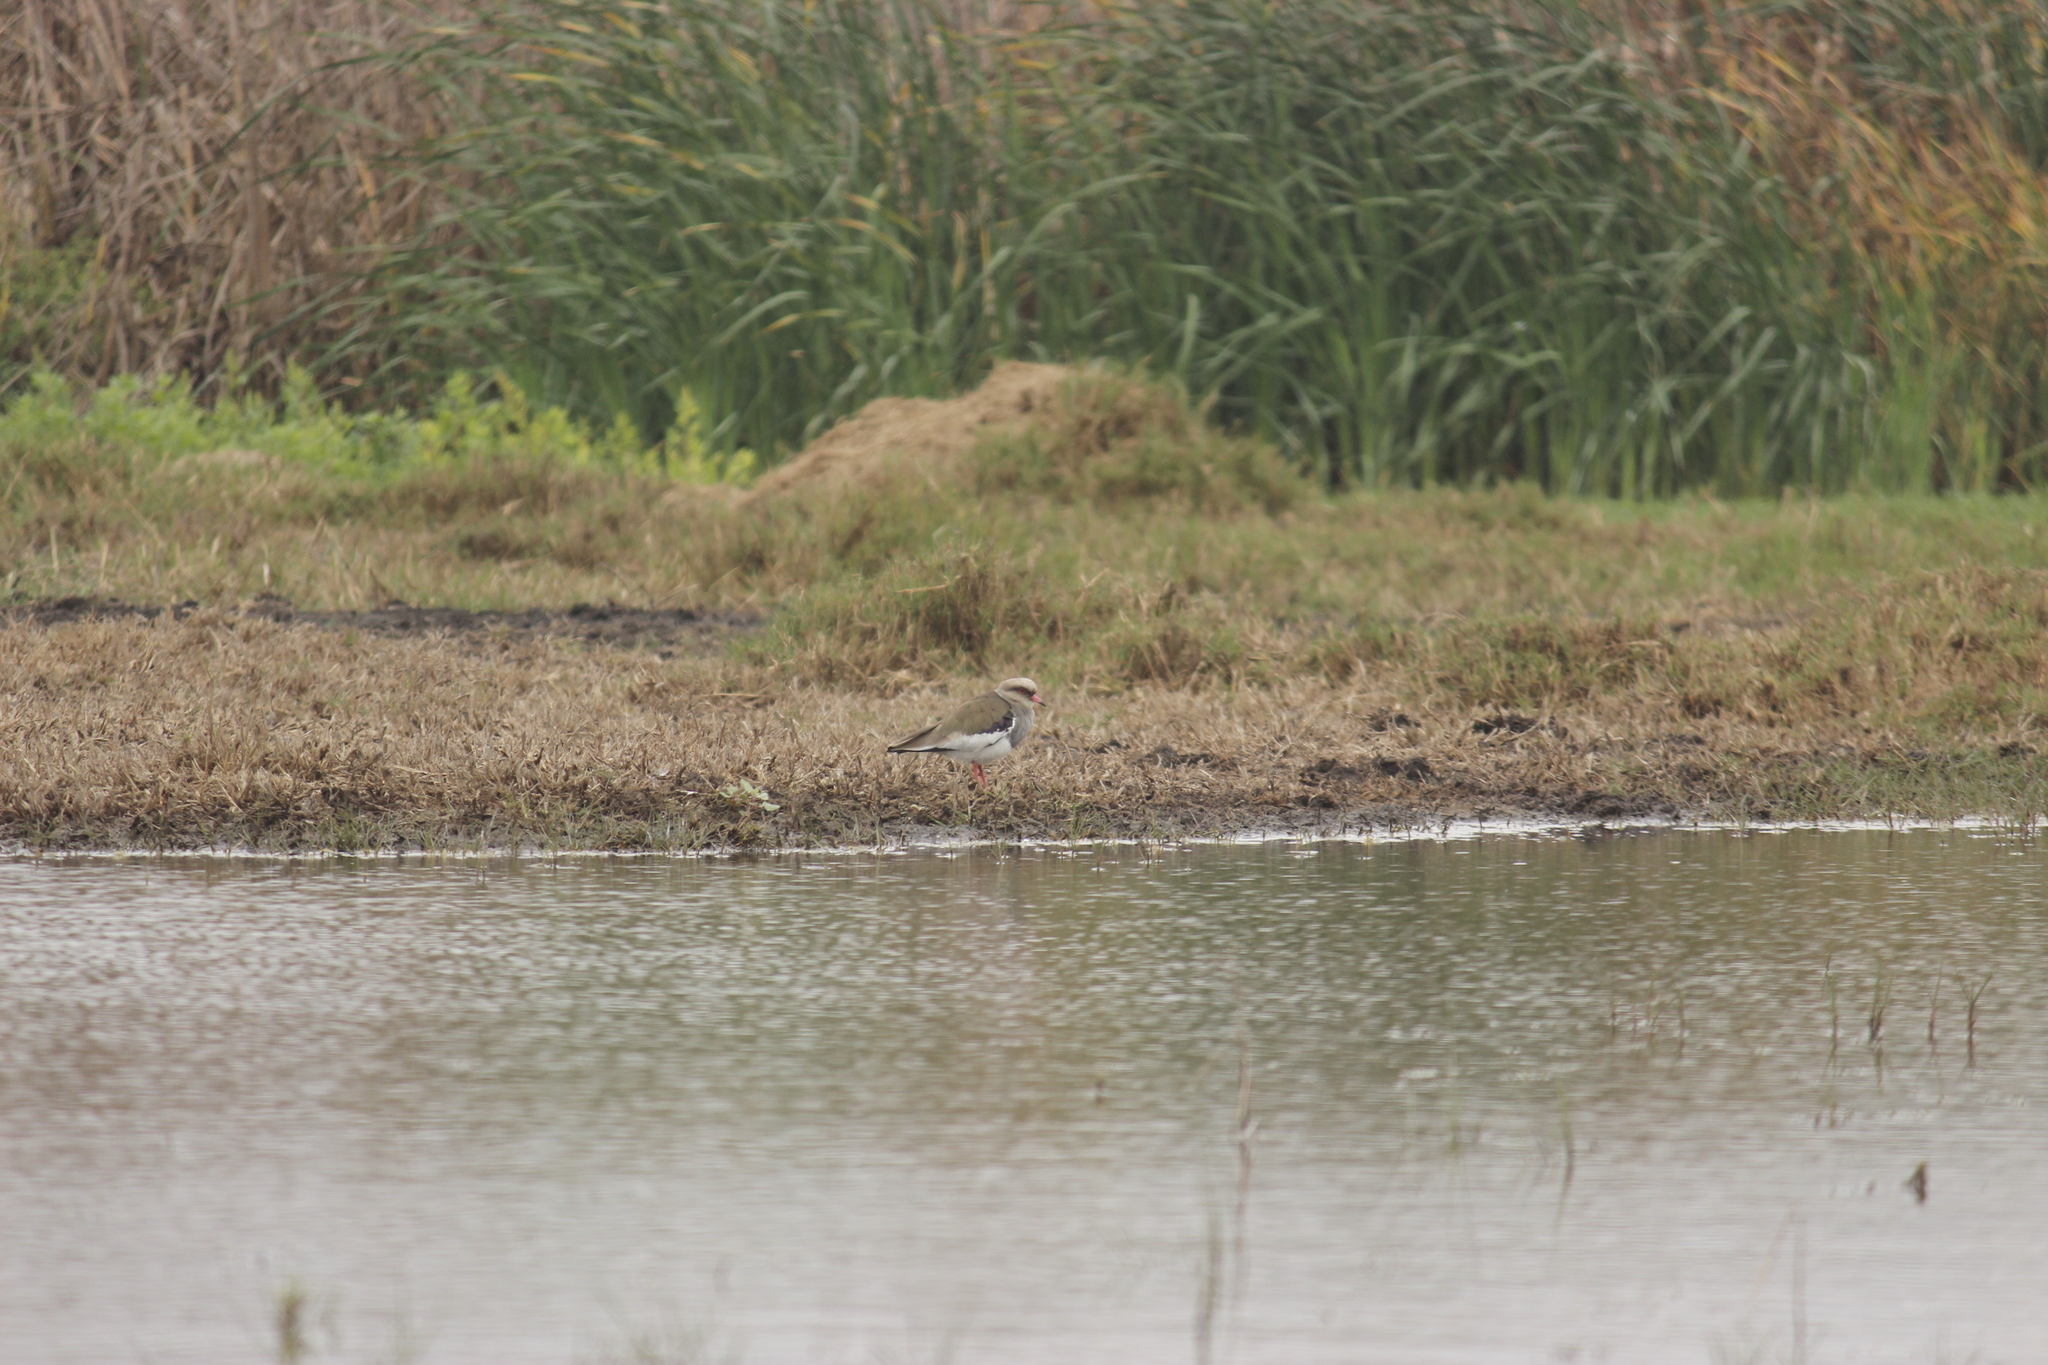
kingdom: Animalia
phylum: Chordata
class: Aves
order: Charadriiformes
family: Charadriidae
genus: Vanellus
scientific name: Vanellus resplendens
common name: Andean lapwing
